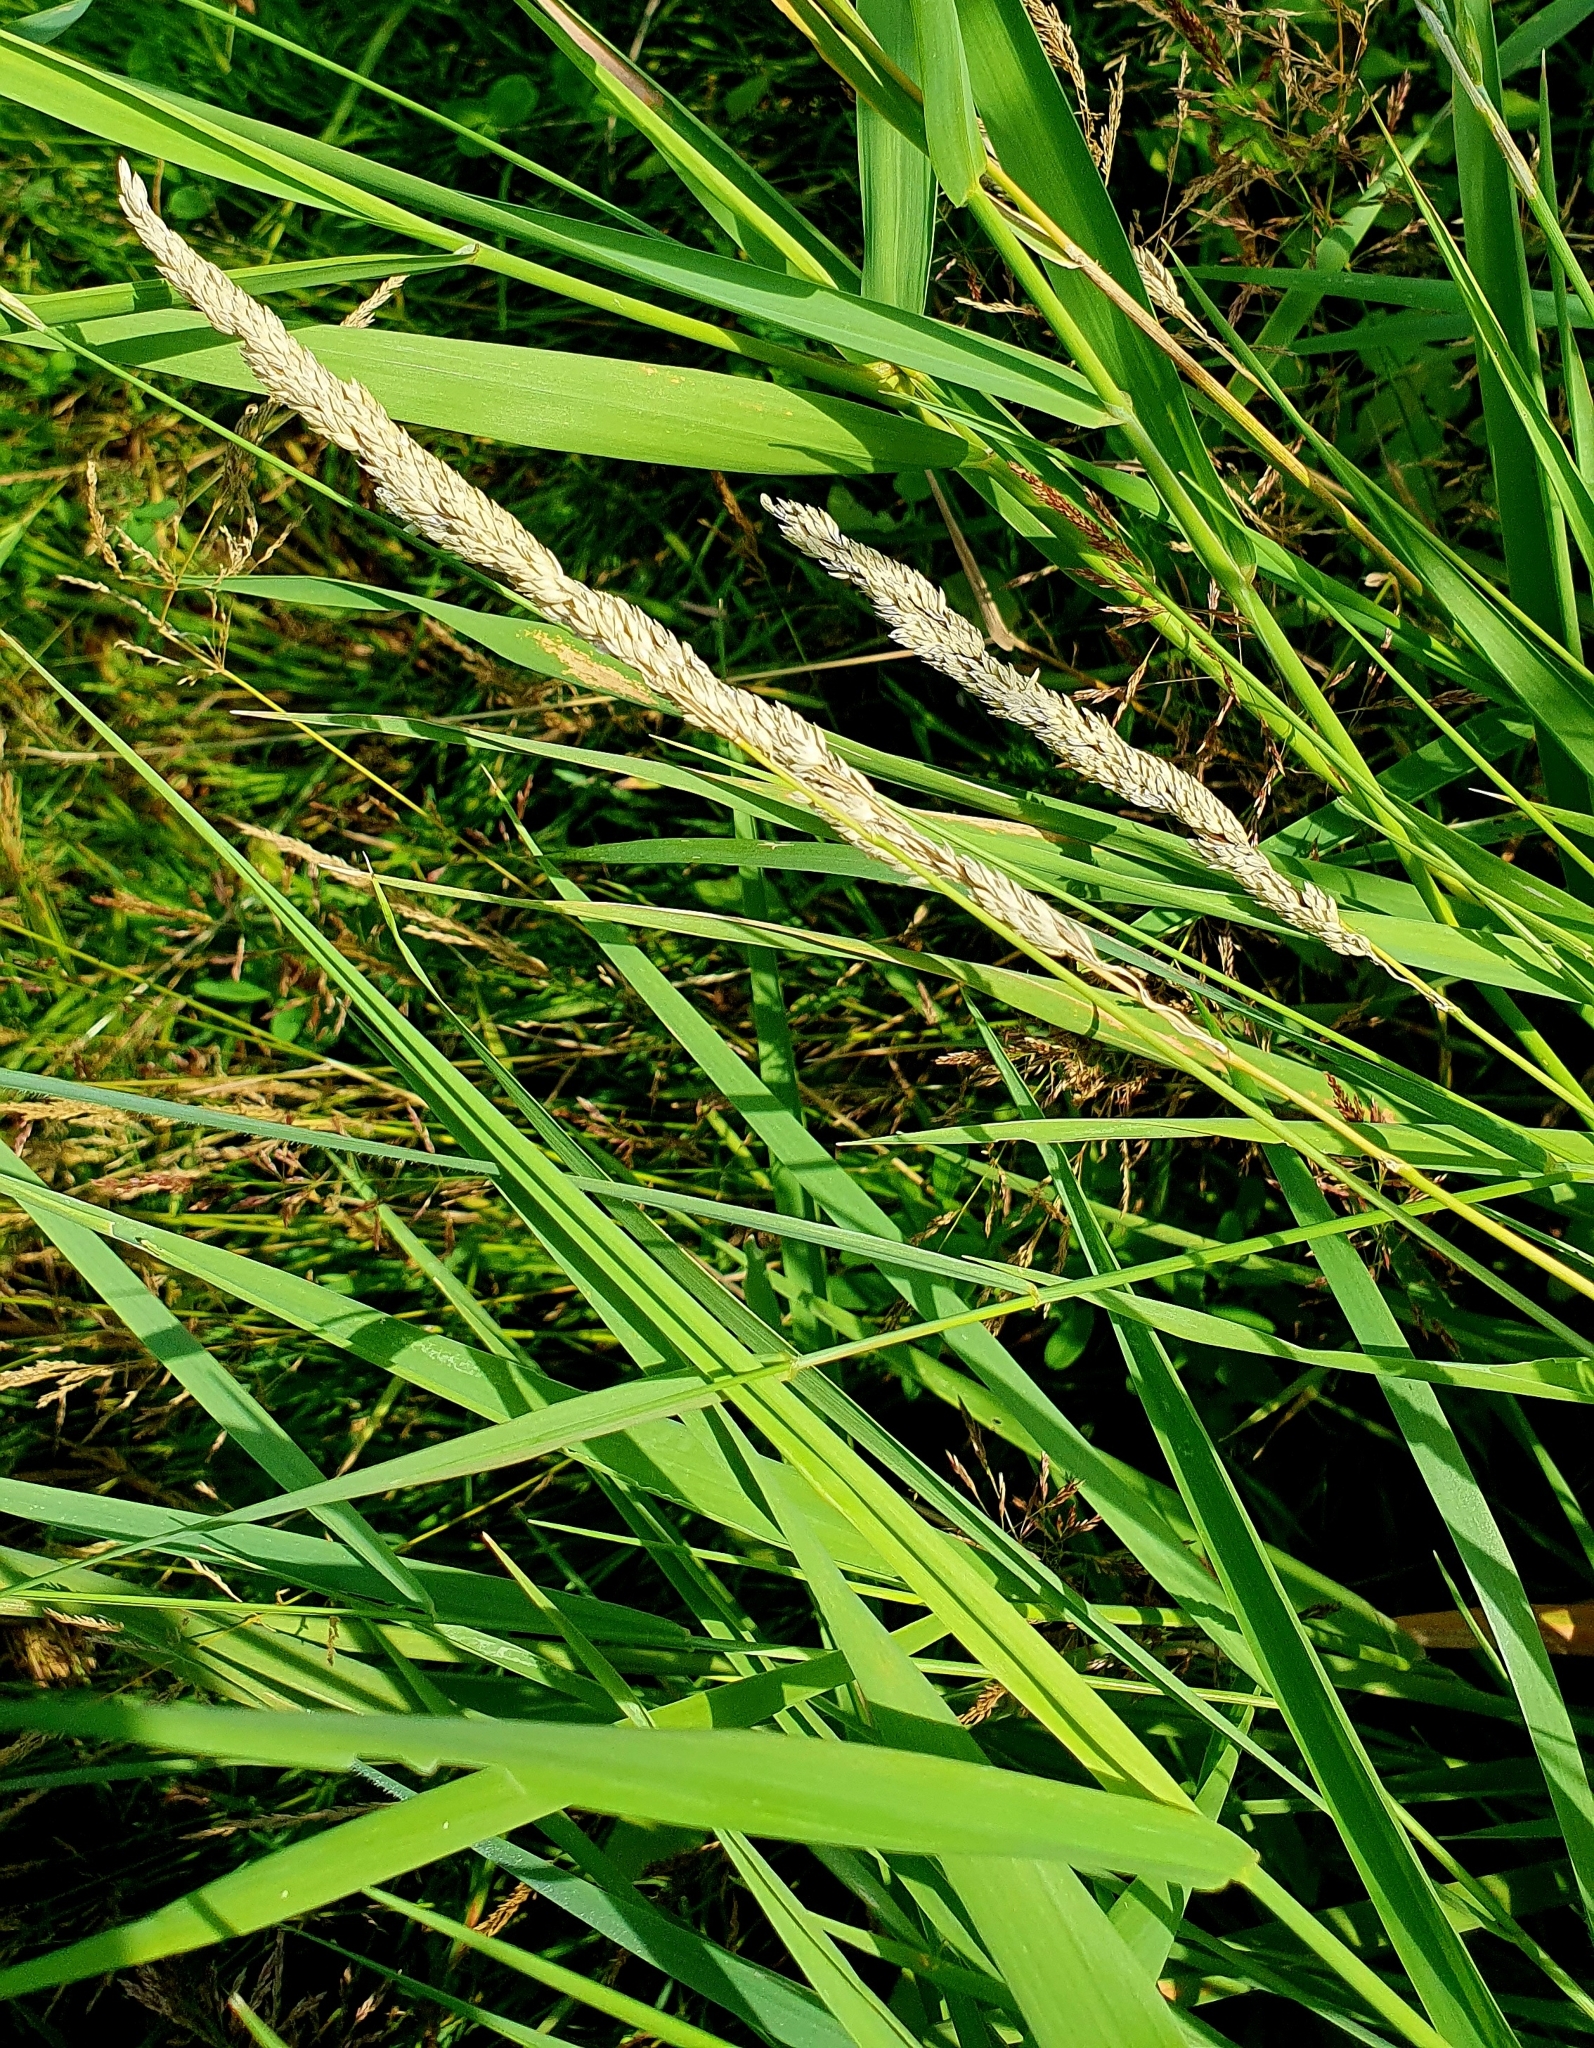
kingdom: Plantae
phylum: Tracheophyta
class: Liliopsida
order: Poales
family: Poaceae
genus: Phalaris
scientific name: Phalaris arundinacea
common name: Reed canary-grass
